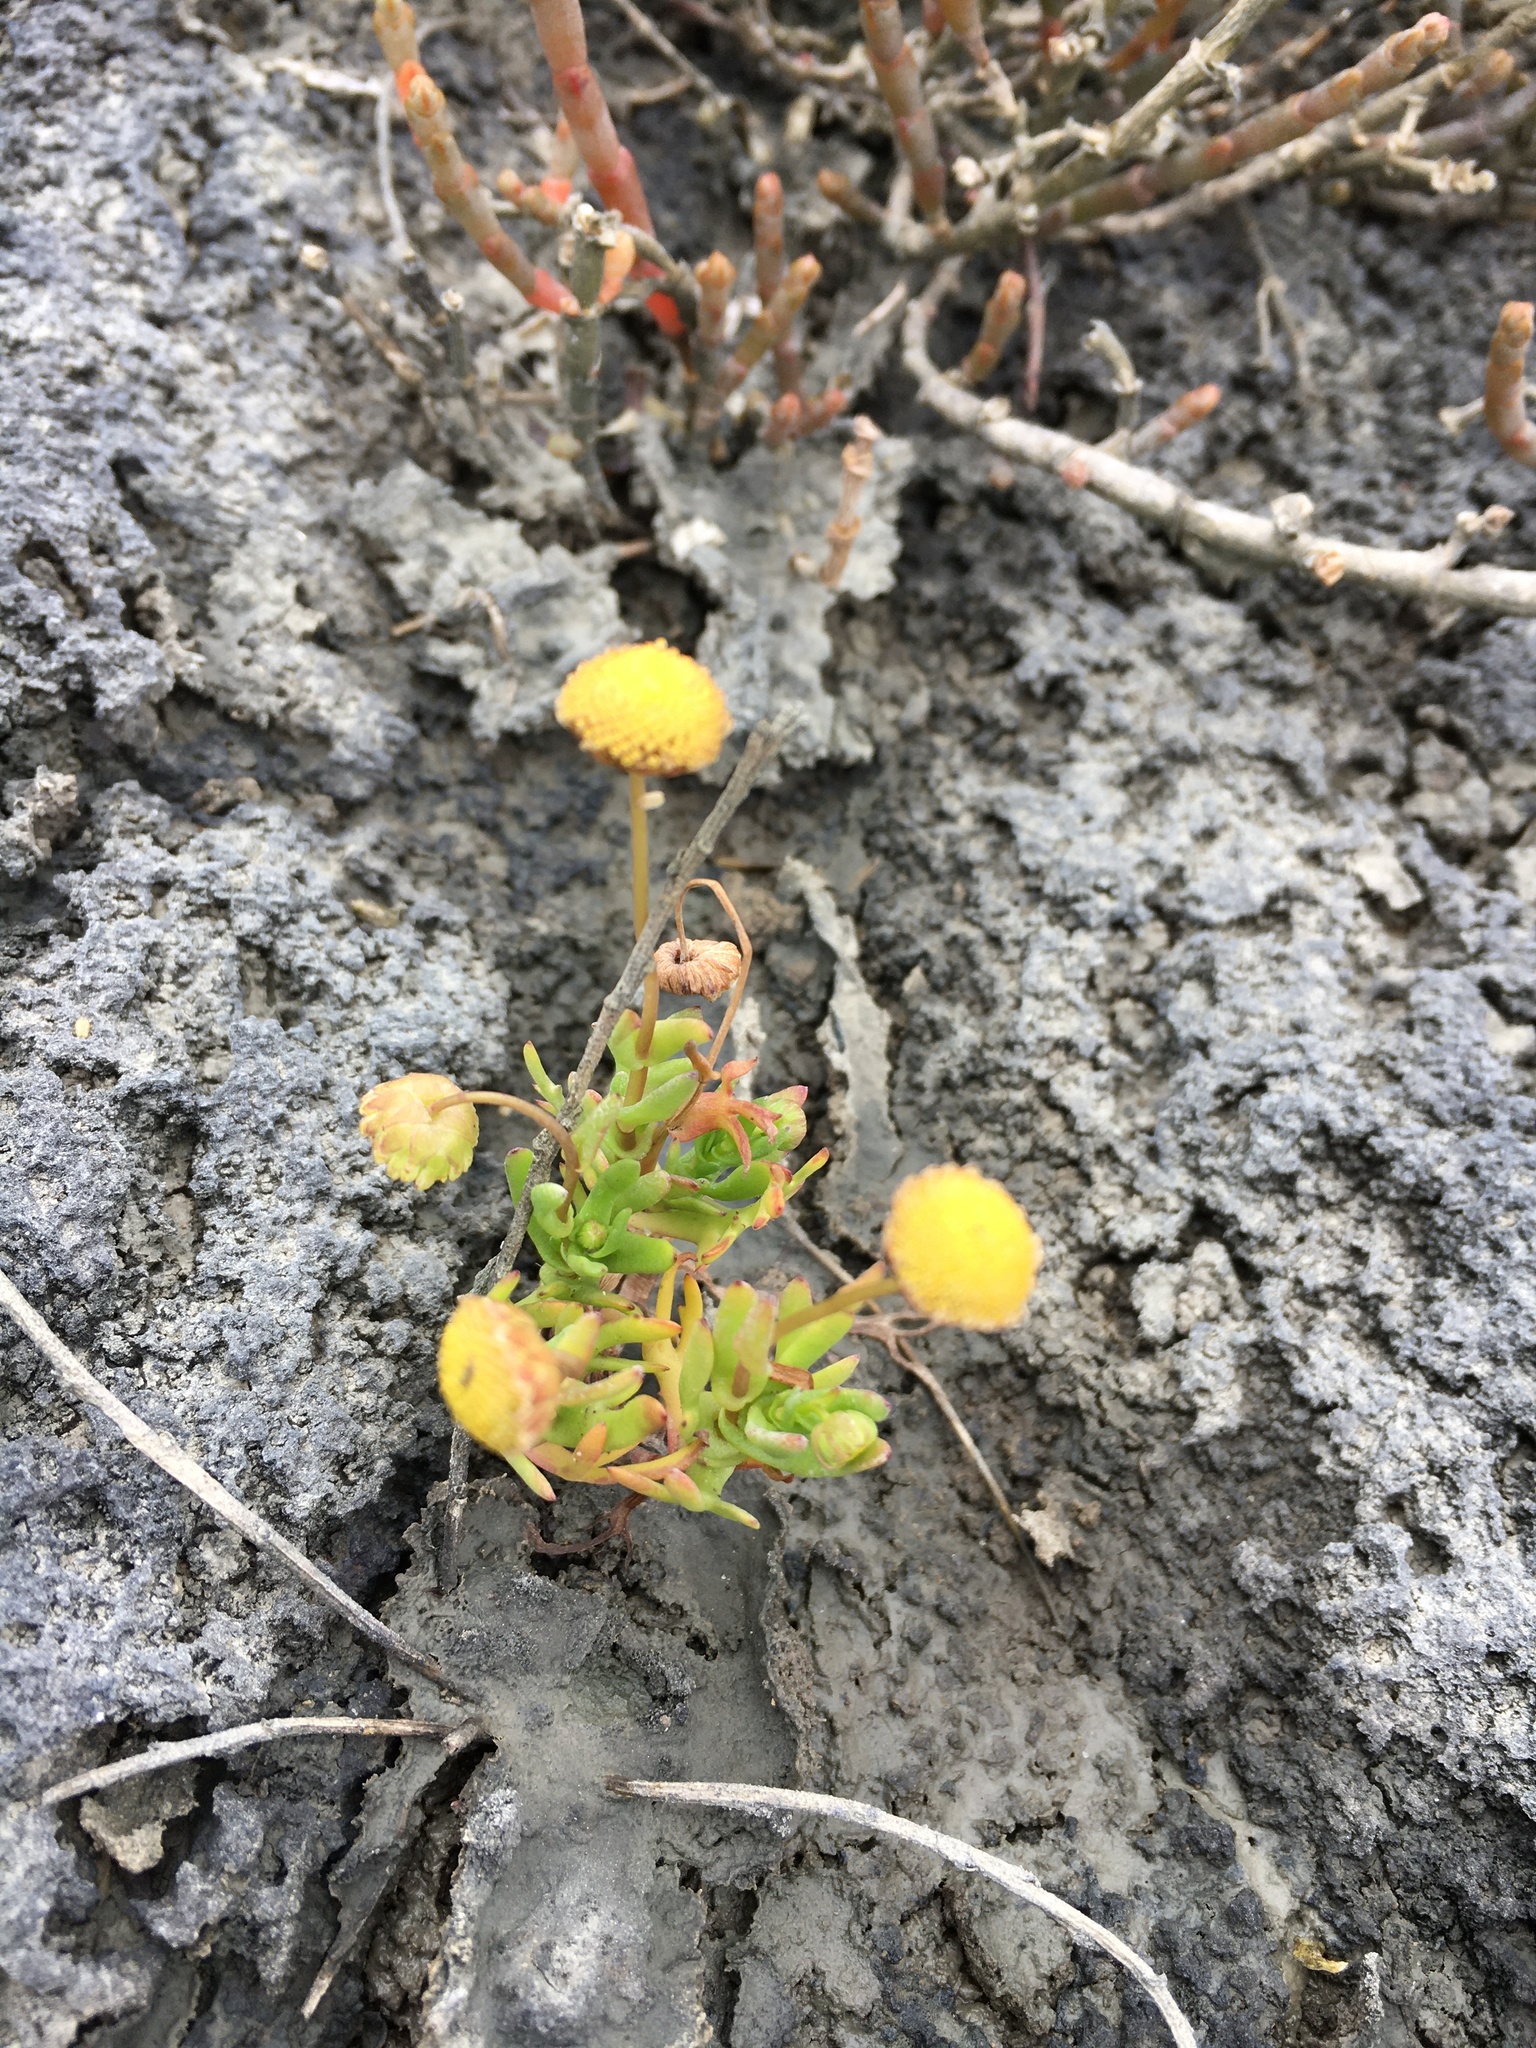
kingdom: Plantae
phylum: Tracheophyta
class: Magnoliopsida
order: Asterales
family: Asteraceae
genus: Cotula
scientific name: Cotula coronopifolia
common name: Buttonweed
